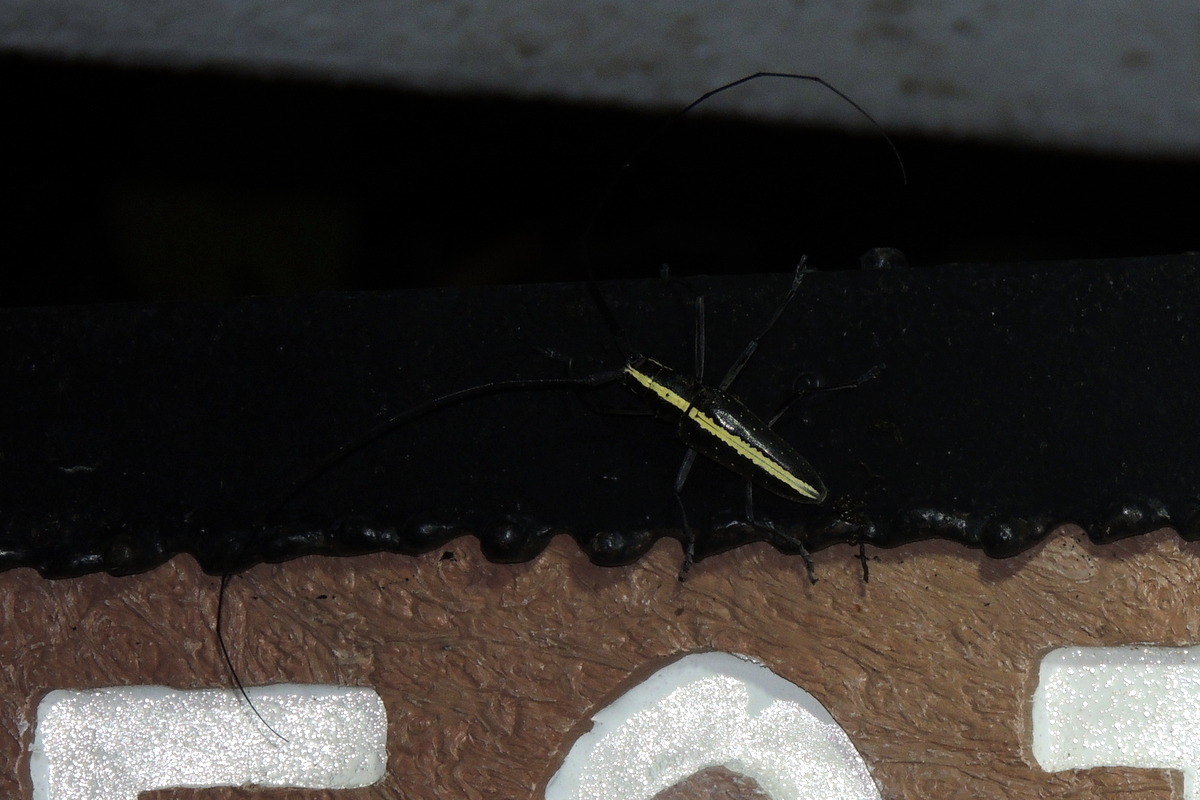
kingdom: Animalia
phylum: Arthropoda
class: Insecta
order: Coleoptera
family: Cerambycidae
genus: Taeniotes
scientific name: Taeniotes scalatus
